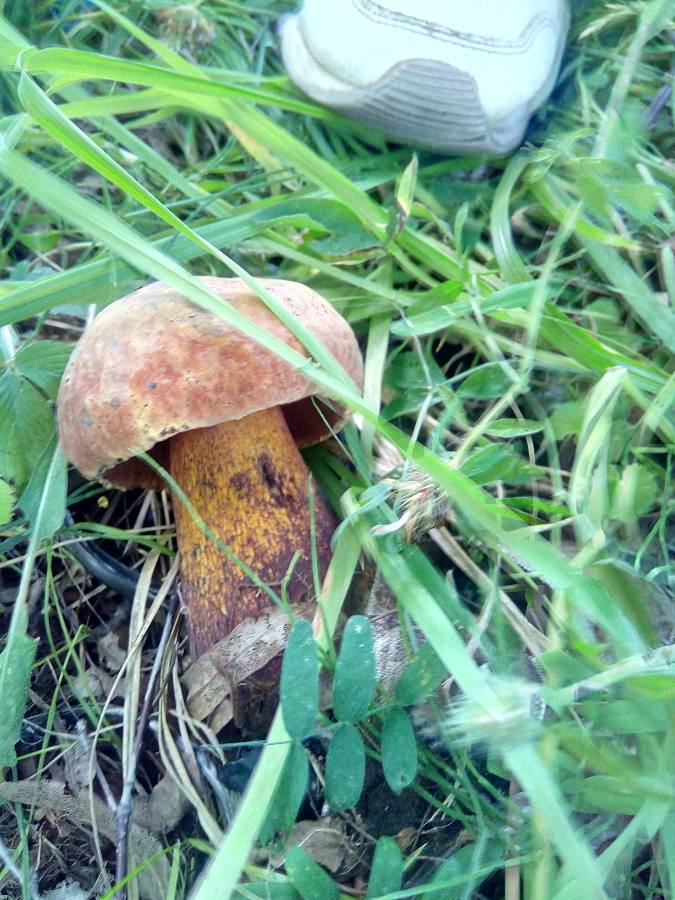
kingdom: Fungi
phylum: Basidiomycota
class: Agaricomycetes
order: Boletales
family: Boletaceae
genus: Suillellus
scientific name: Suillellus luridus
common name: Lurid bolete
